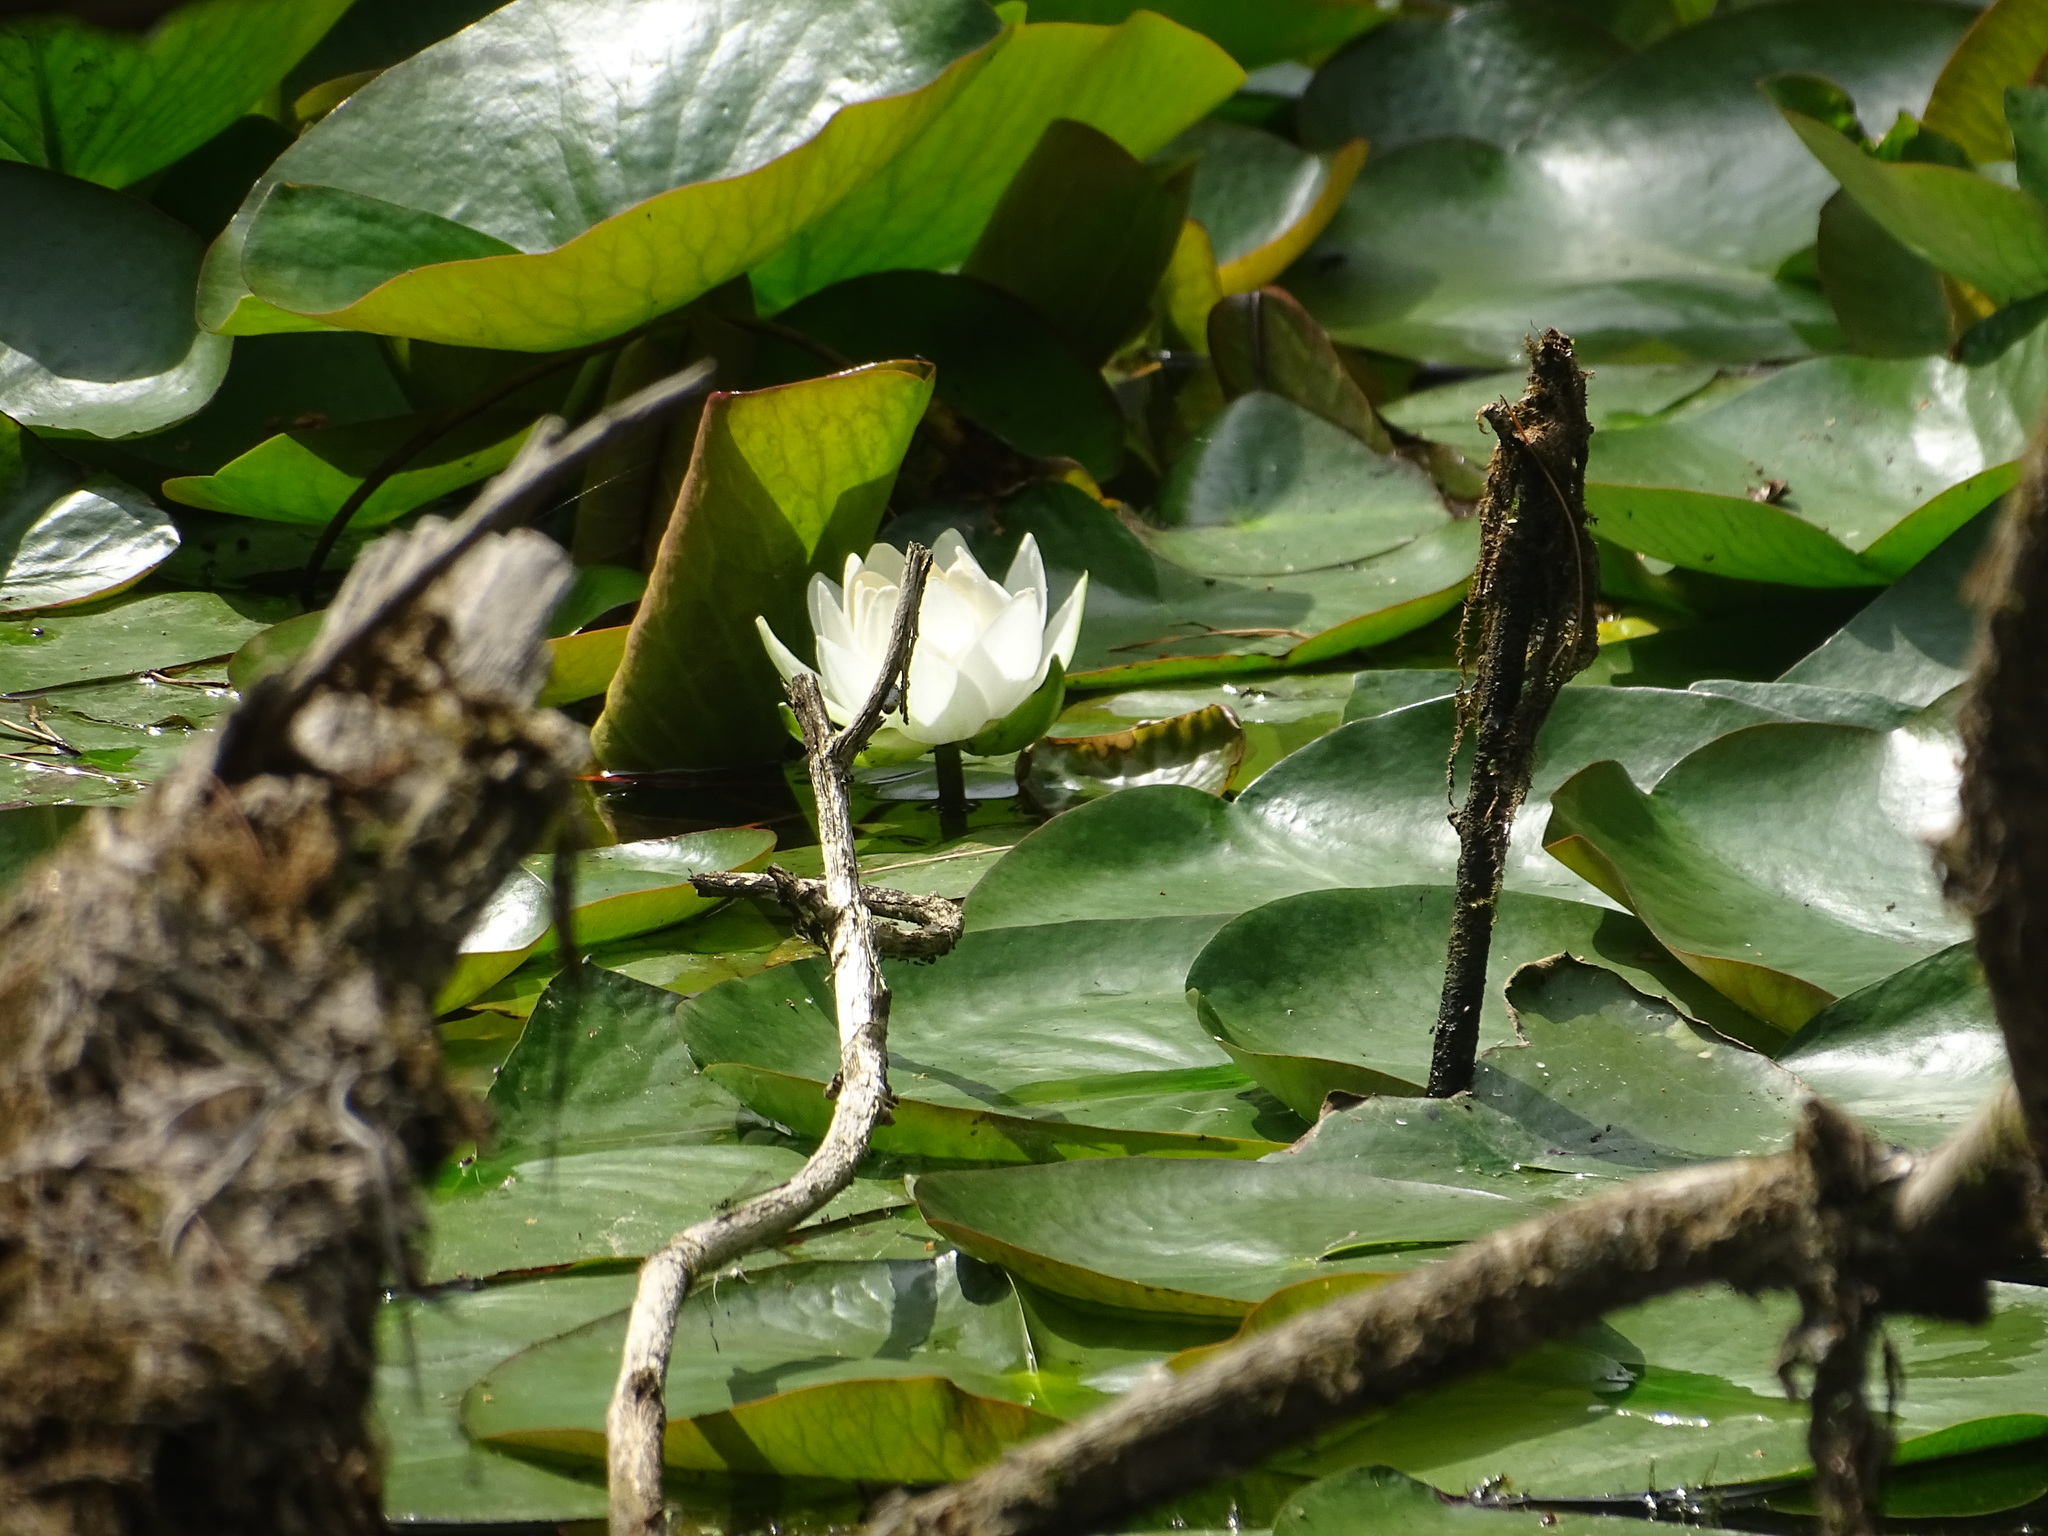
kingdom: Plantae
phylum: Tracheophyta
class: Magnoliopsida
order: Nymphaeales
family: Nymphaeaceae
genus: Nymphaea
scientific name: Nymphaea odorata
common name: Fragrant water-lily
